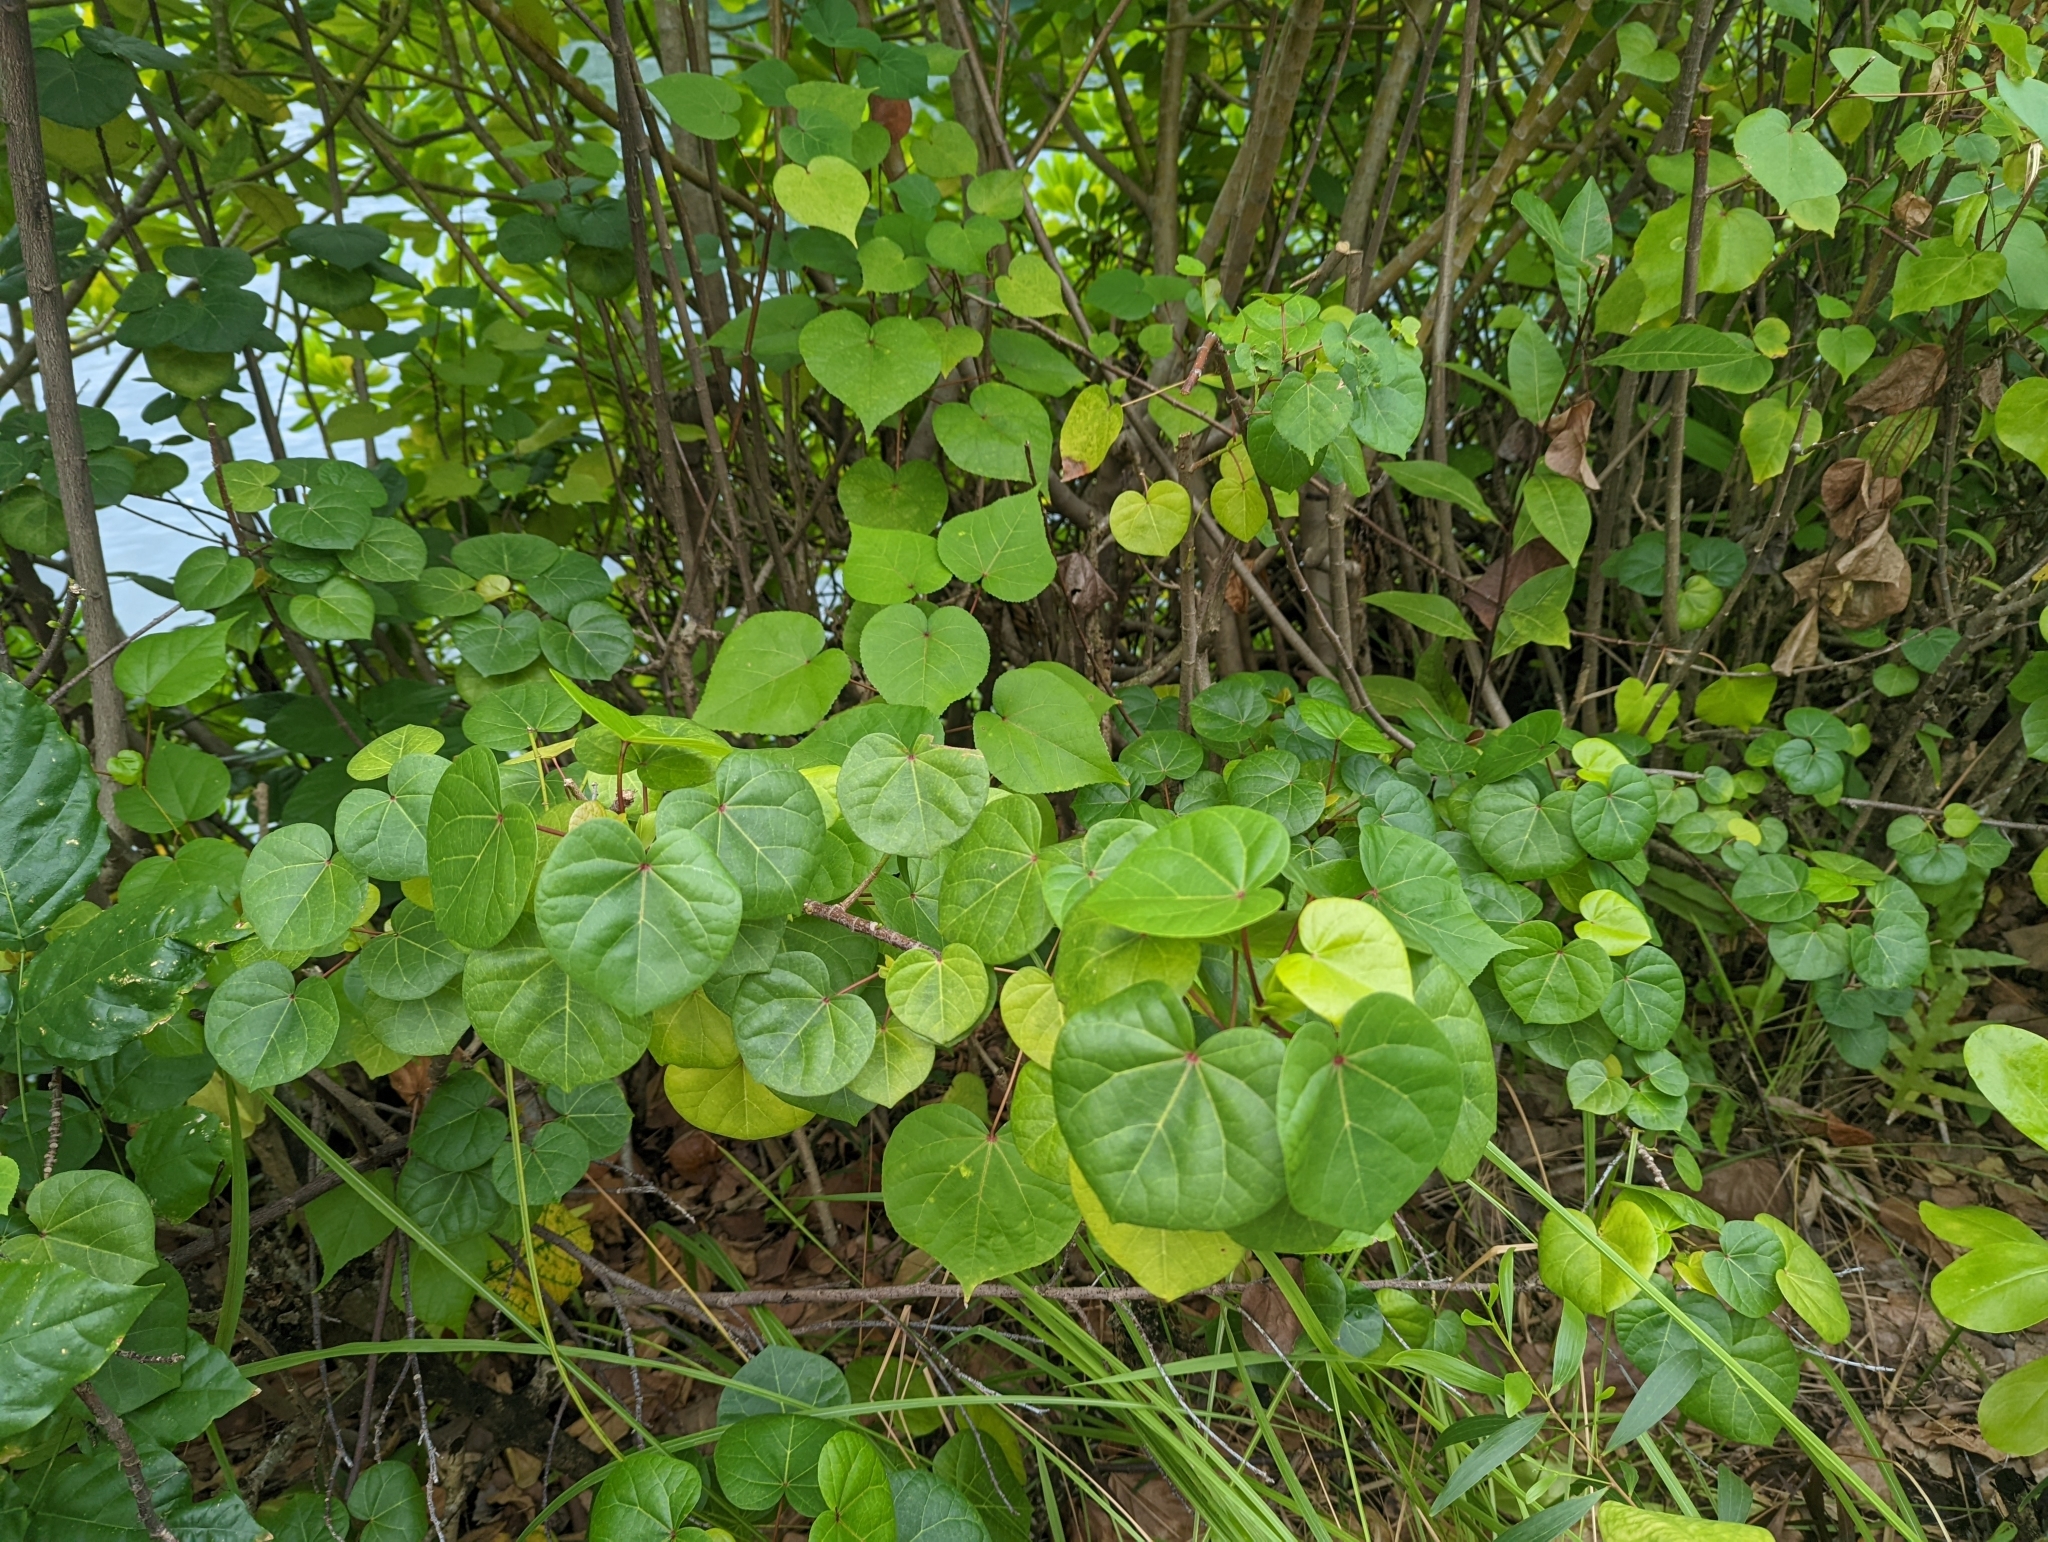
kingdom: Plantae
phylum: Tracheophyta
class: Magnoliopsida
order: Malvales
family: Malvaceae
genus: Talipariti
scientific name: Talipariti tiliaceum
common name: Sea hibiscus
